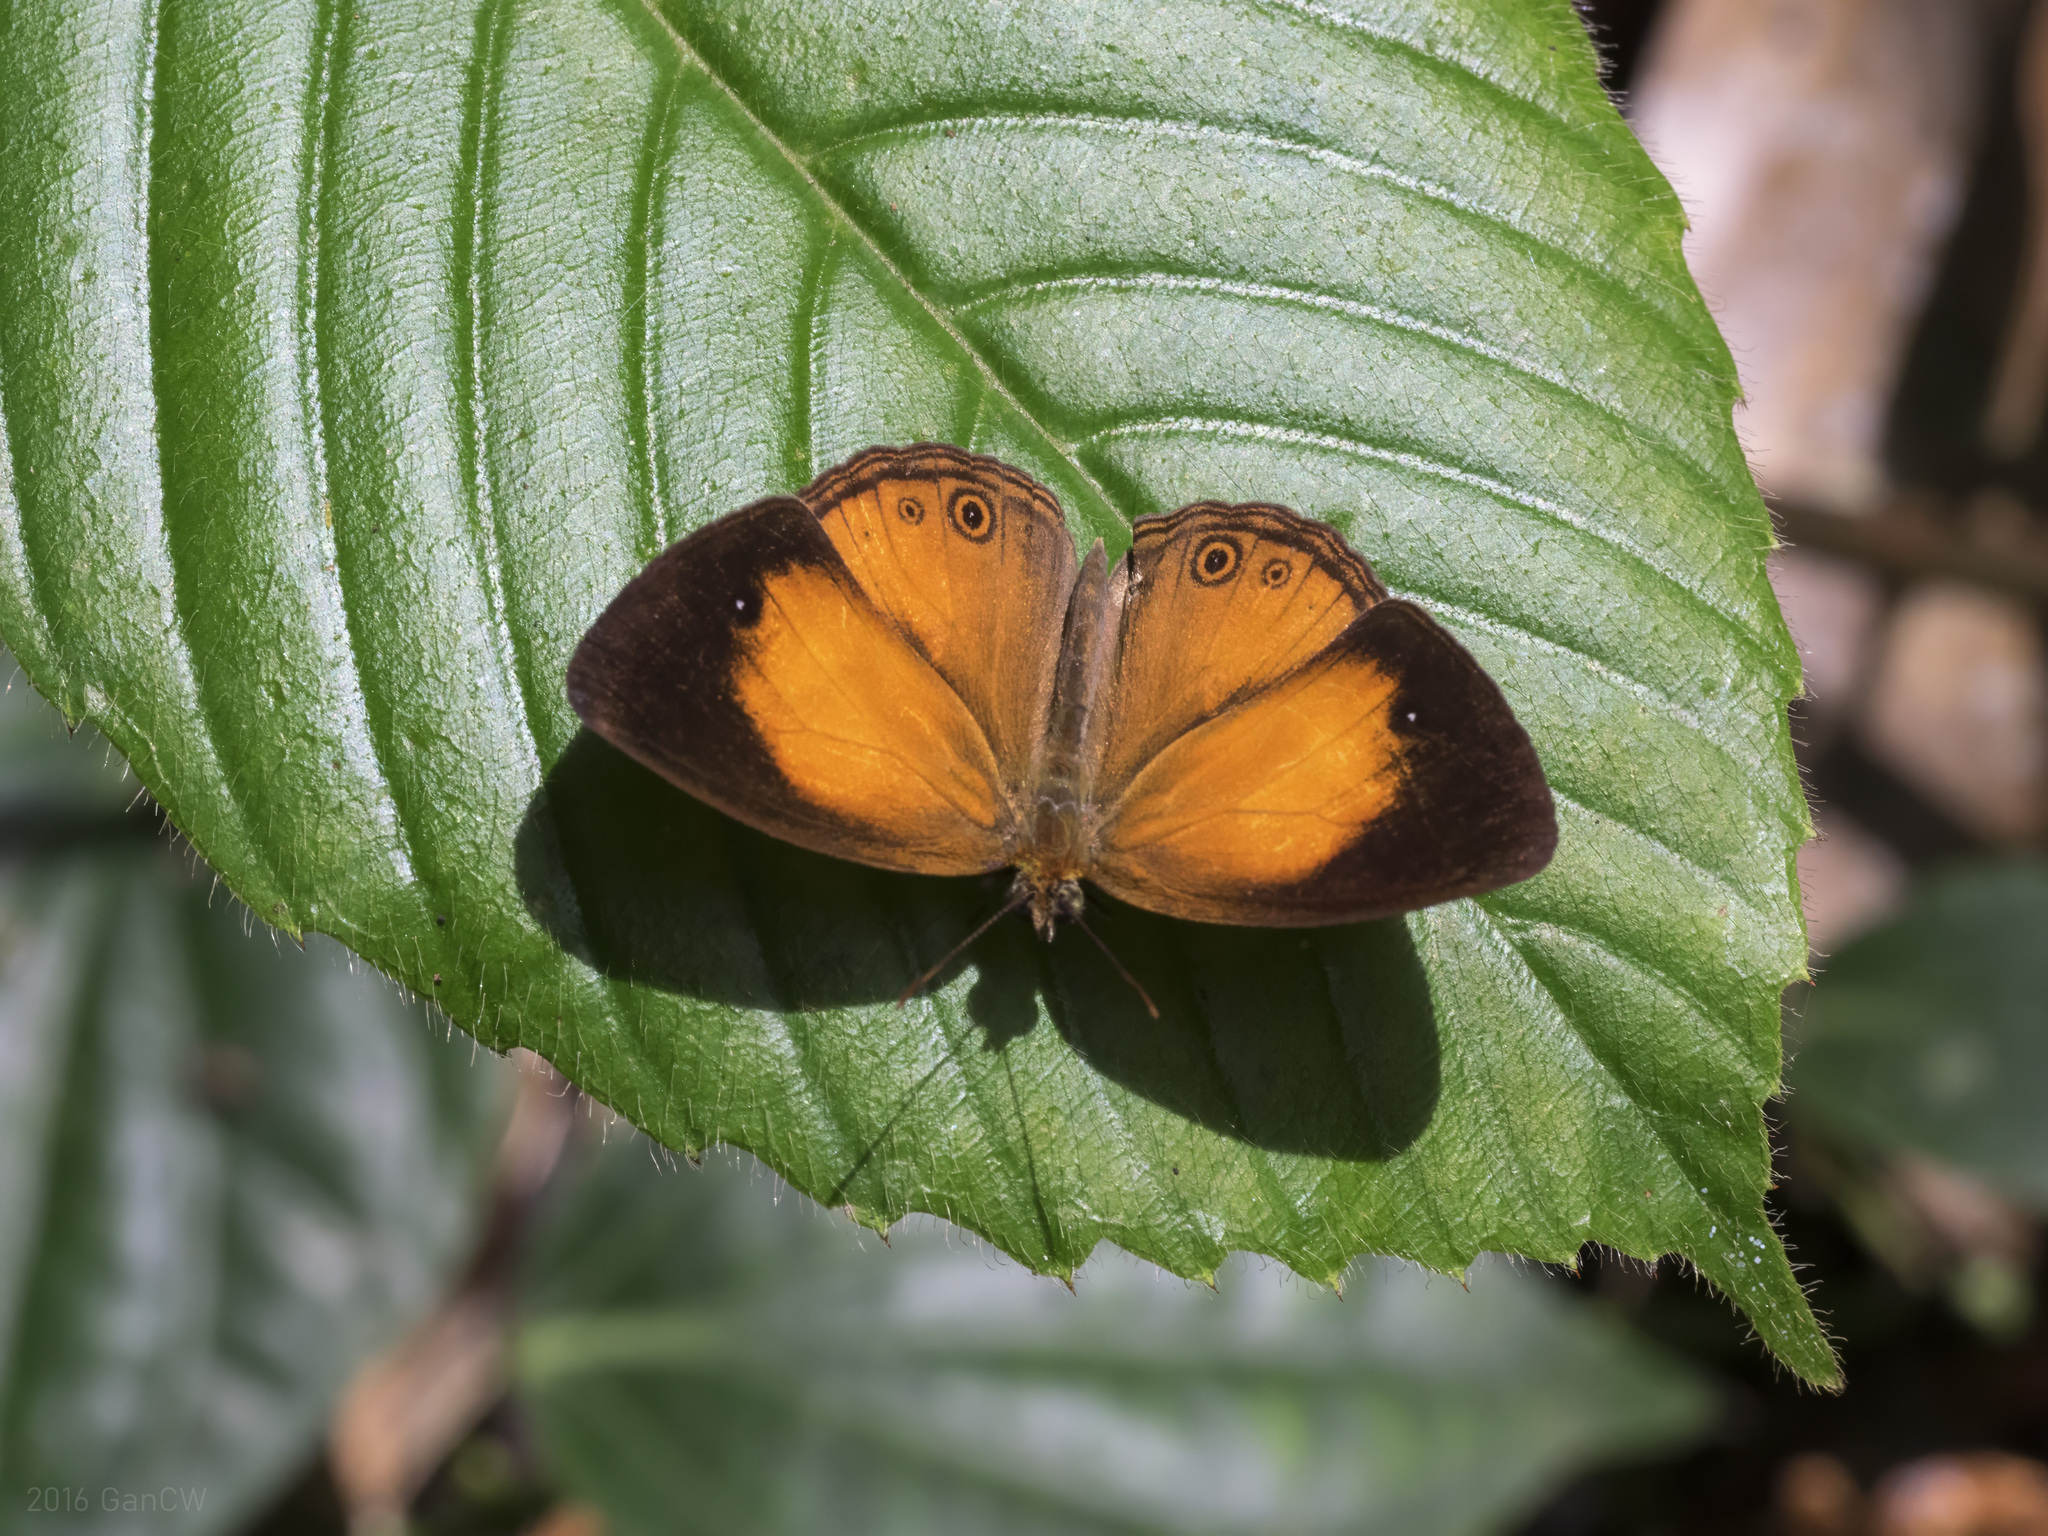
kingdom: Animalia
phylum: Arthropoda
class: Insecta
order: Lepidoptera
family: Nymphalidae
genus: Mycalesis
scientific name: Mycalesis patiana
